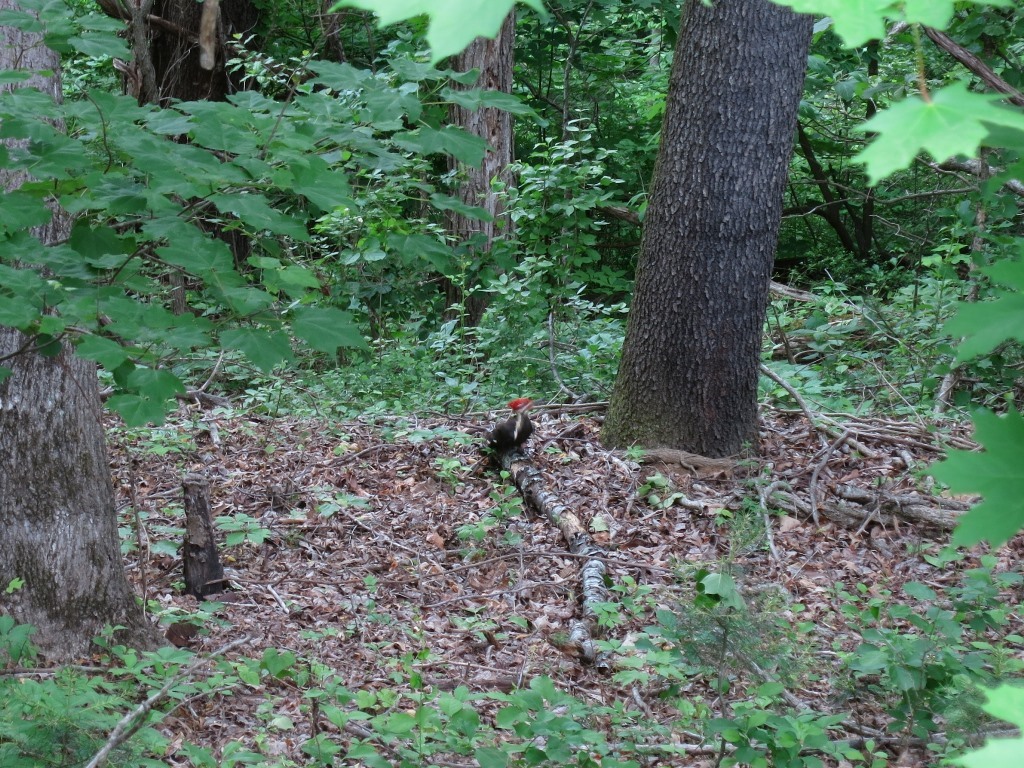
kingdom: Animalia
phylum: Chordata
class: Aves
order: Piciformes
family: Picidae
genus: Dryocopus
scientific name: Dryocopus pileatus
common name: Pileated woodpecker
